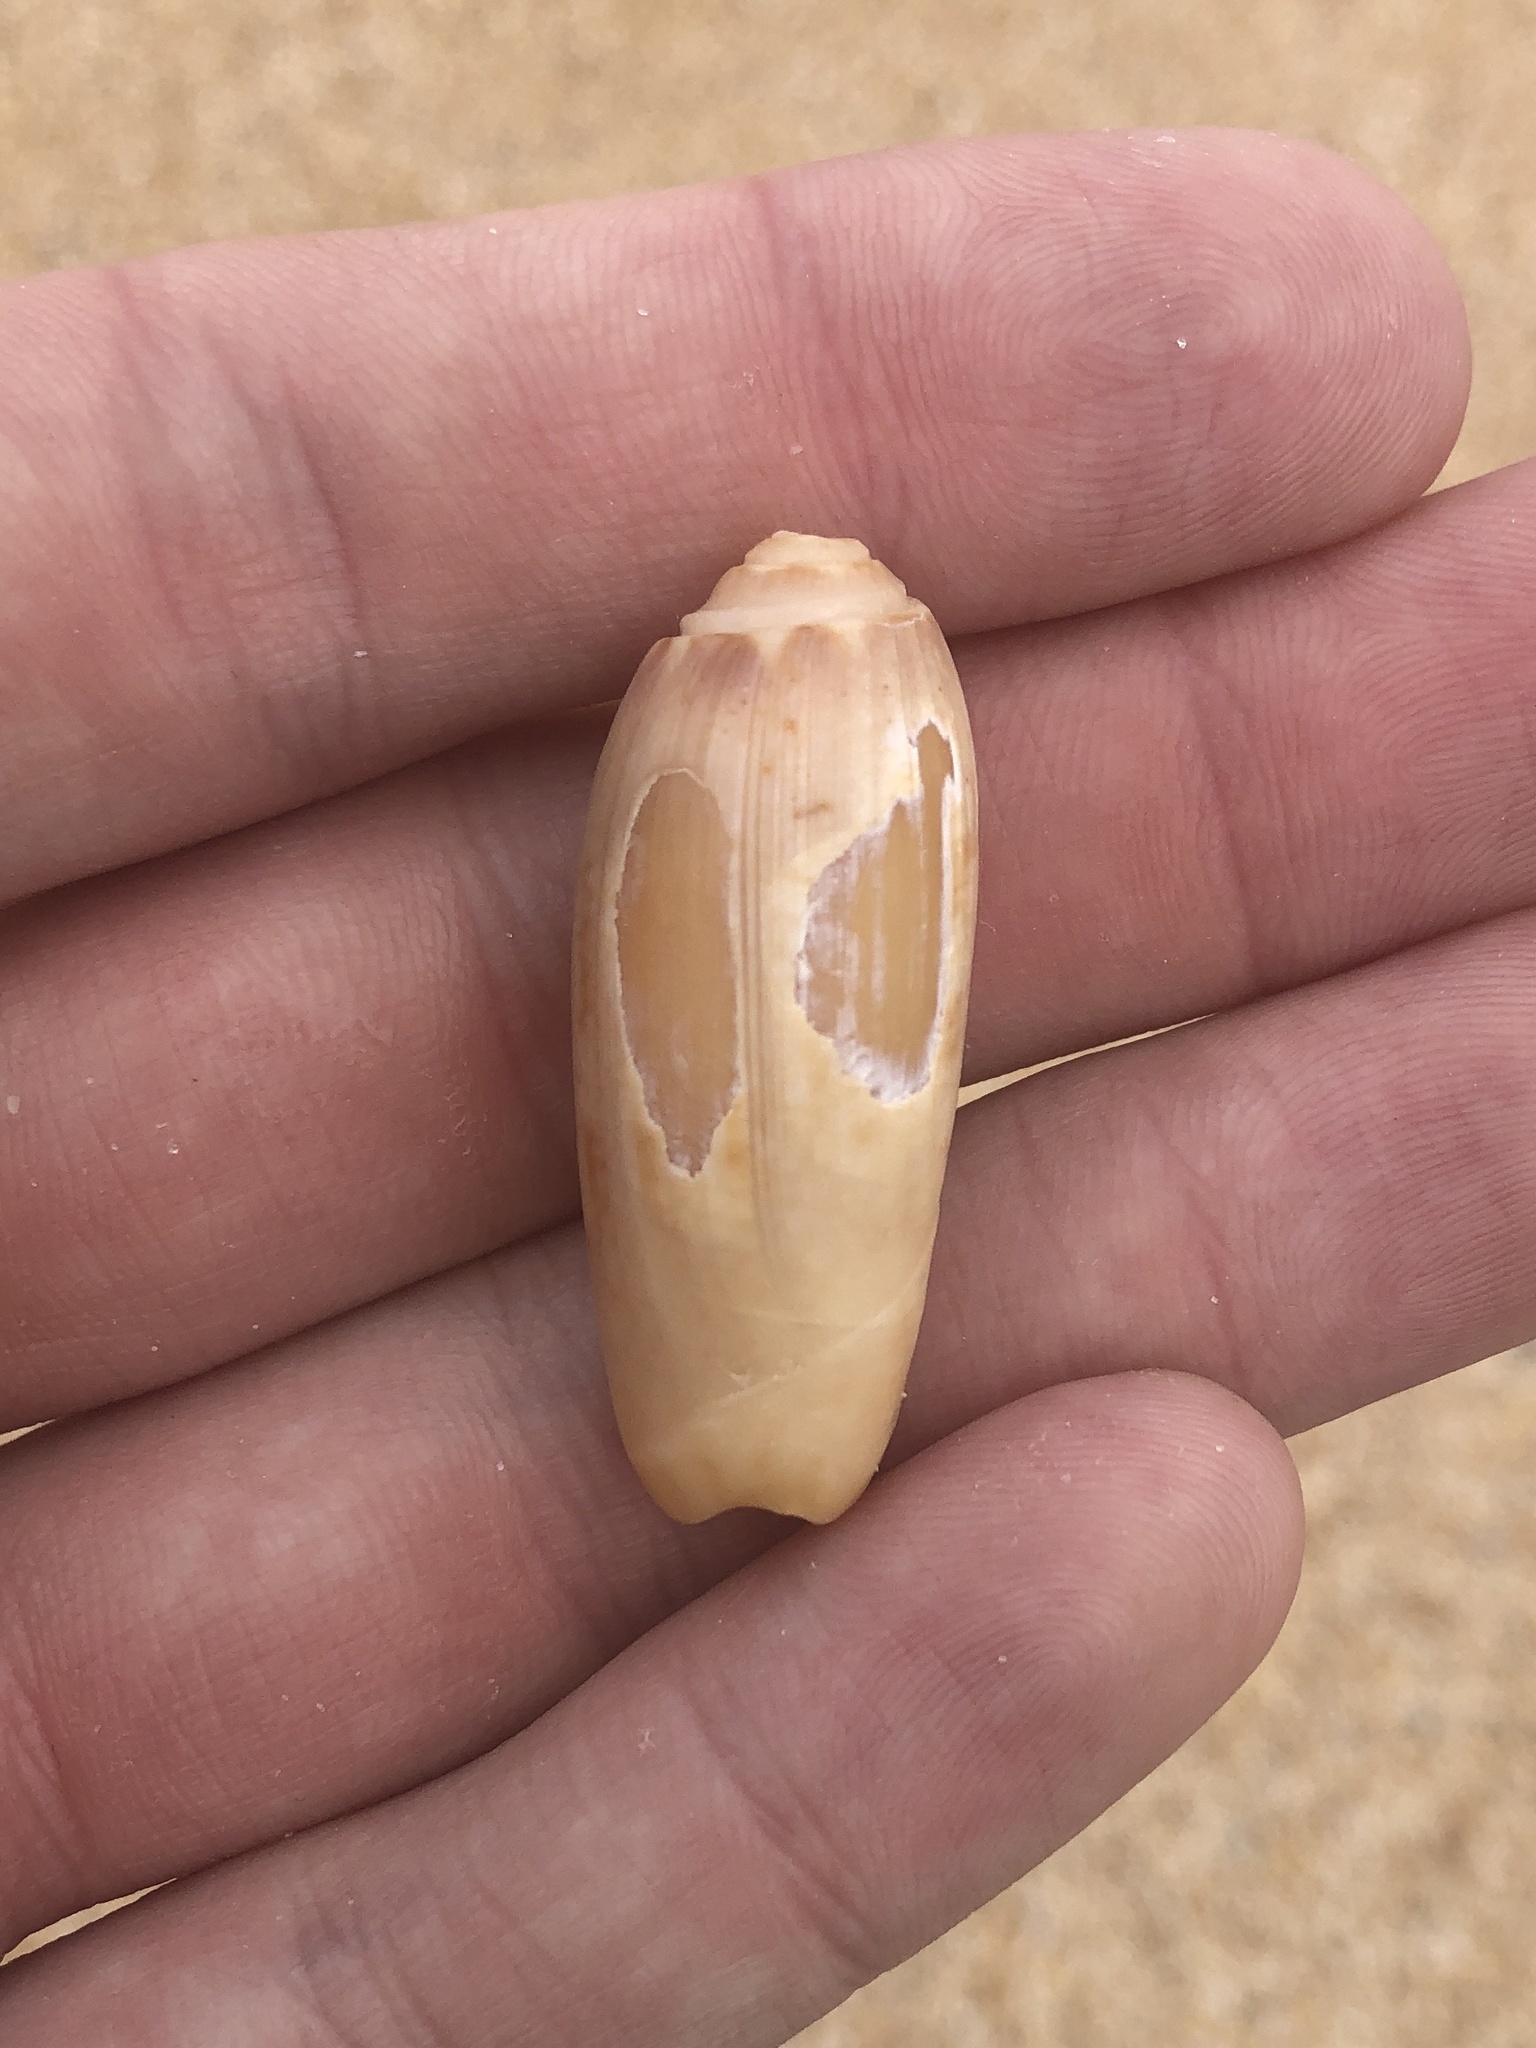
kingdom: Animalia
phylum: Mollusca
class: Gastropoda
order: Neogastropoda
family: Olividae
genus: Oliva
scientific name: Oliva sayana
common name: Lettered olive
